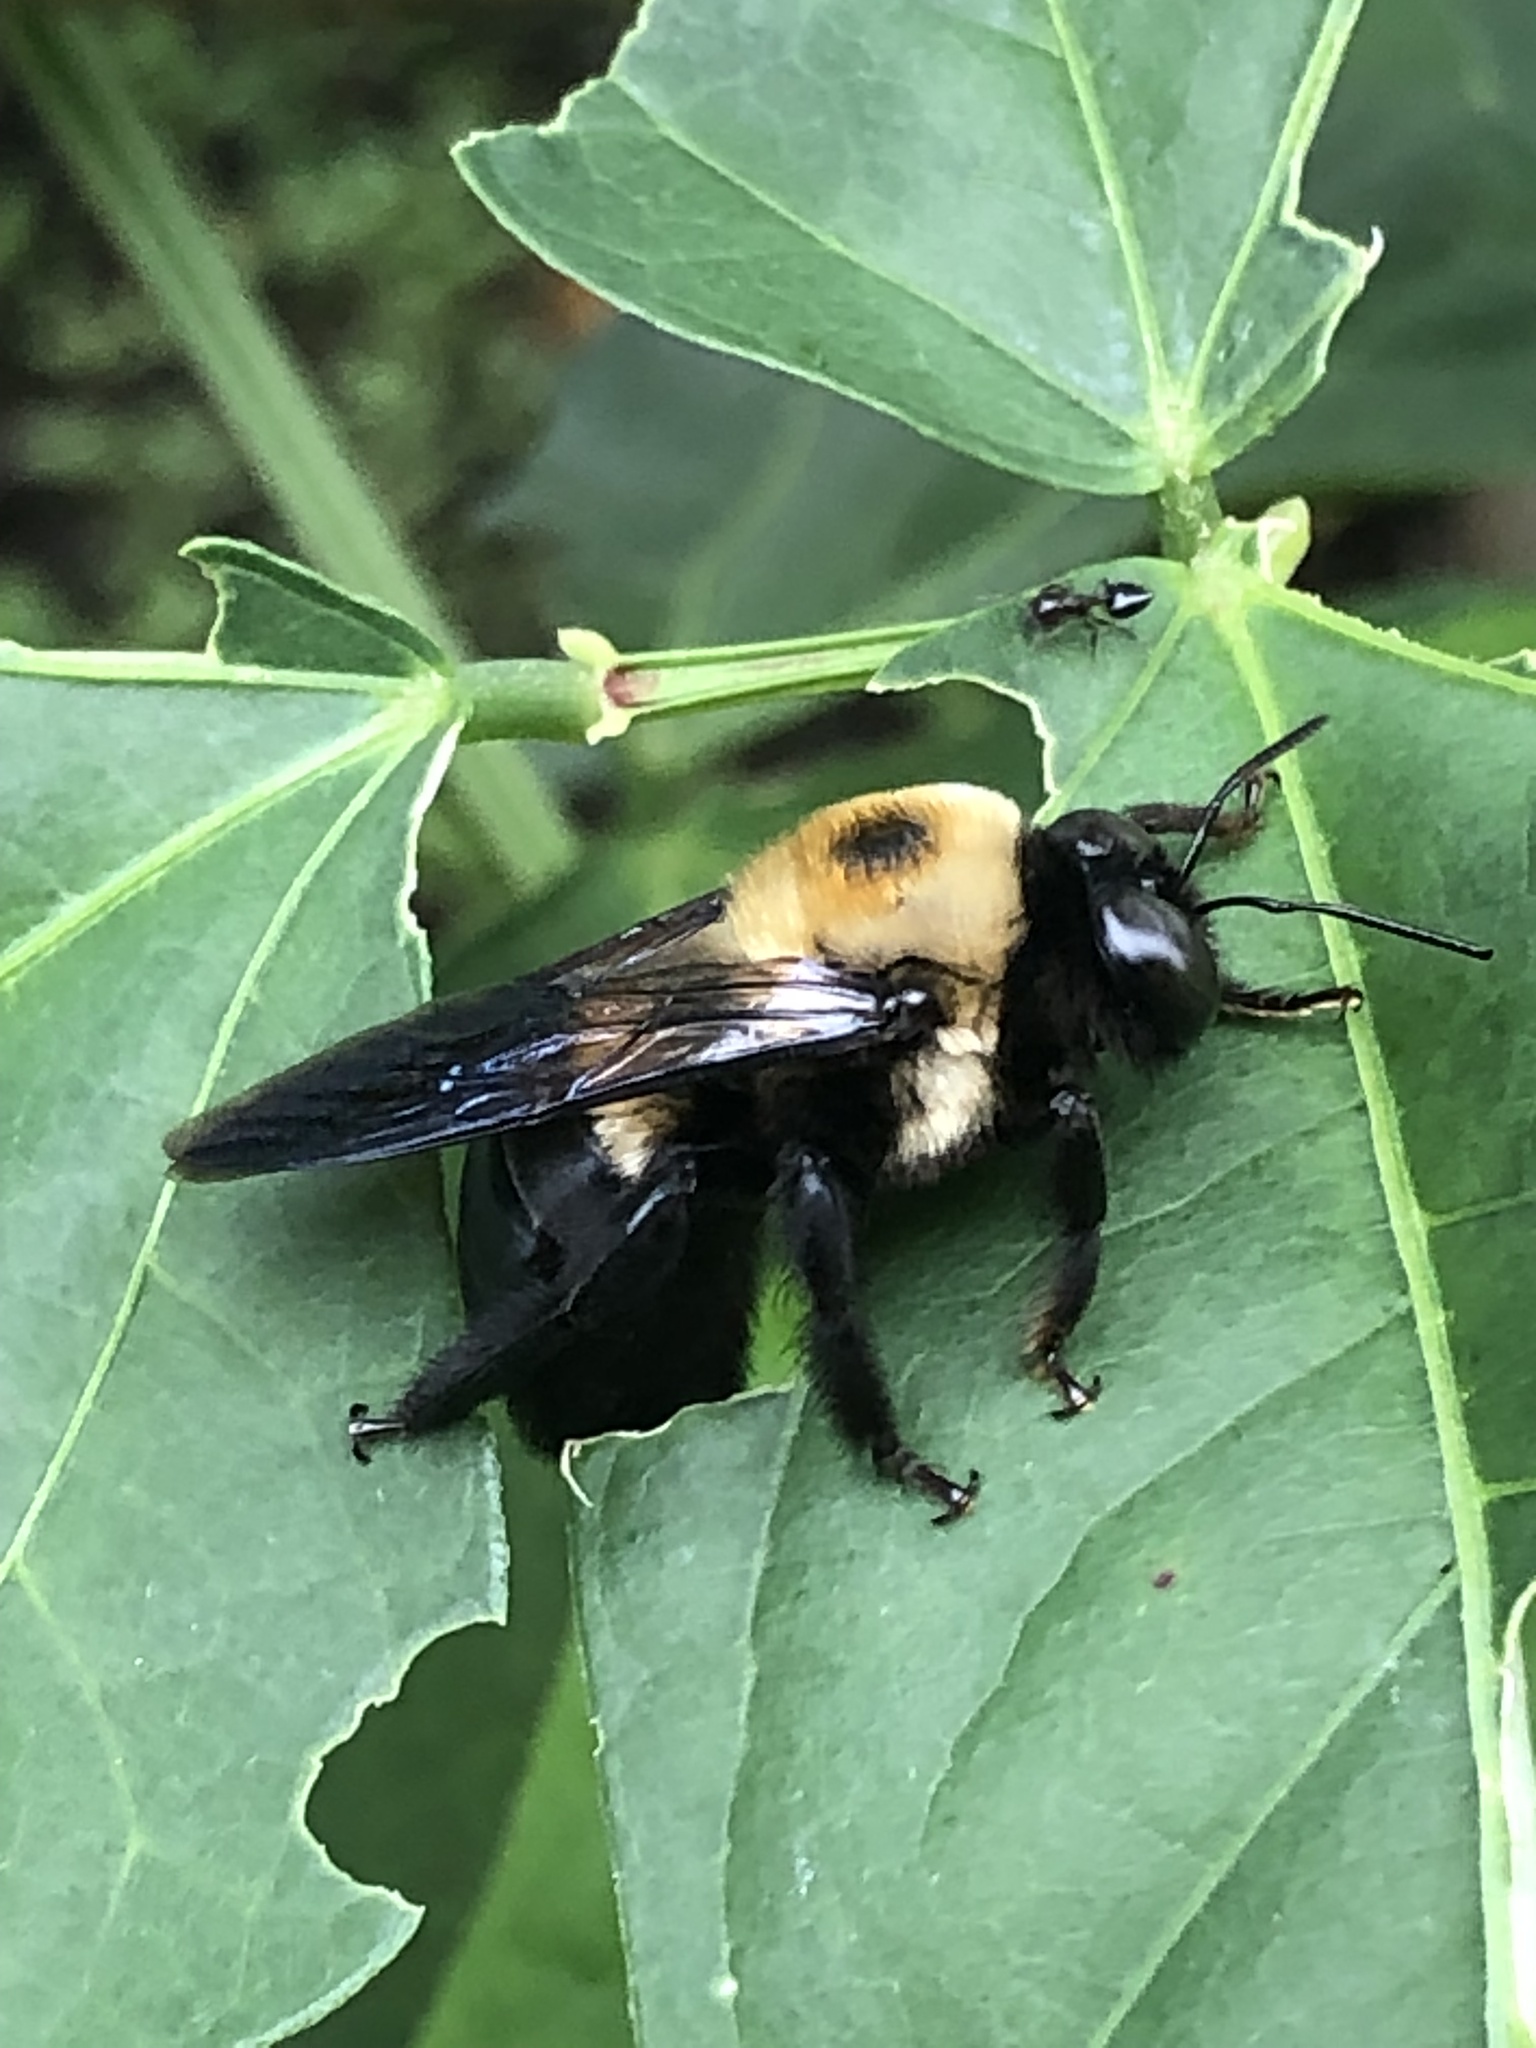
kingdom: Animalia
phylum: Arthropoda
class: Insecta
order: Hymenoptera
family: Apidae
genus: Xylocopa
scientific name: Xylocopa virginica
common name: Carpenter bee
